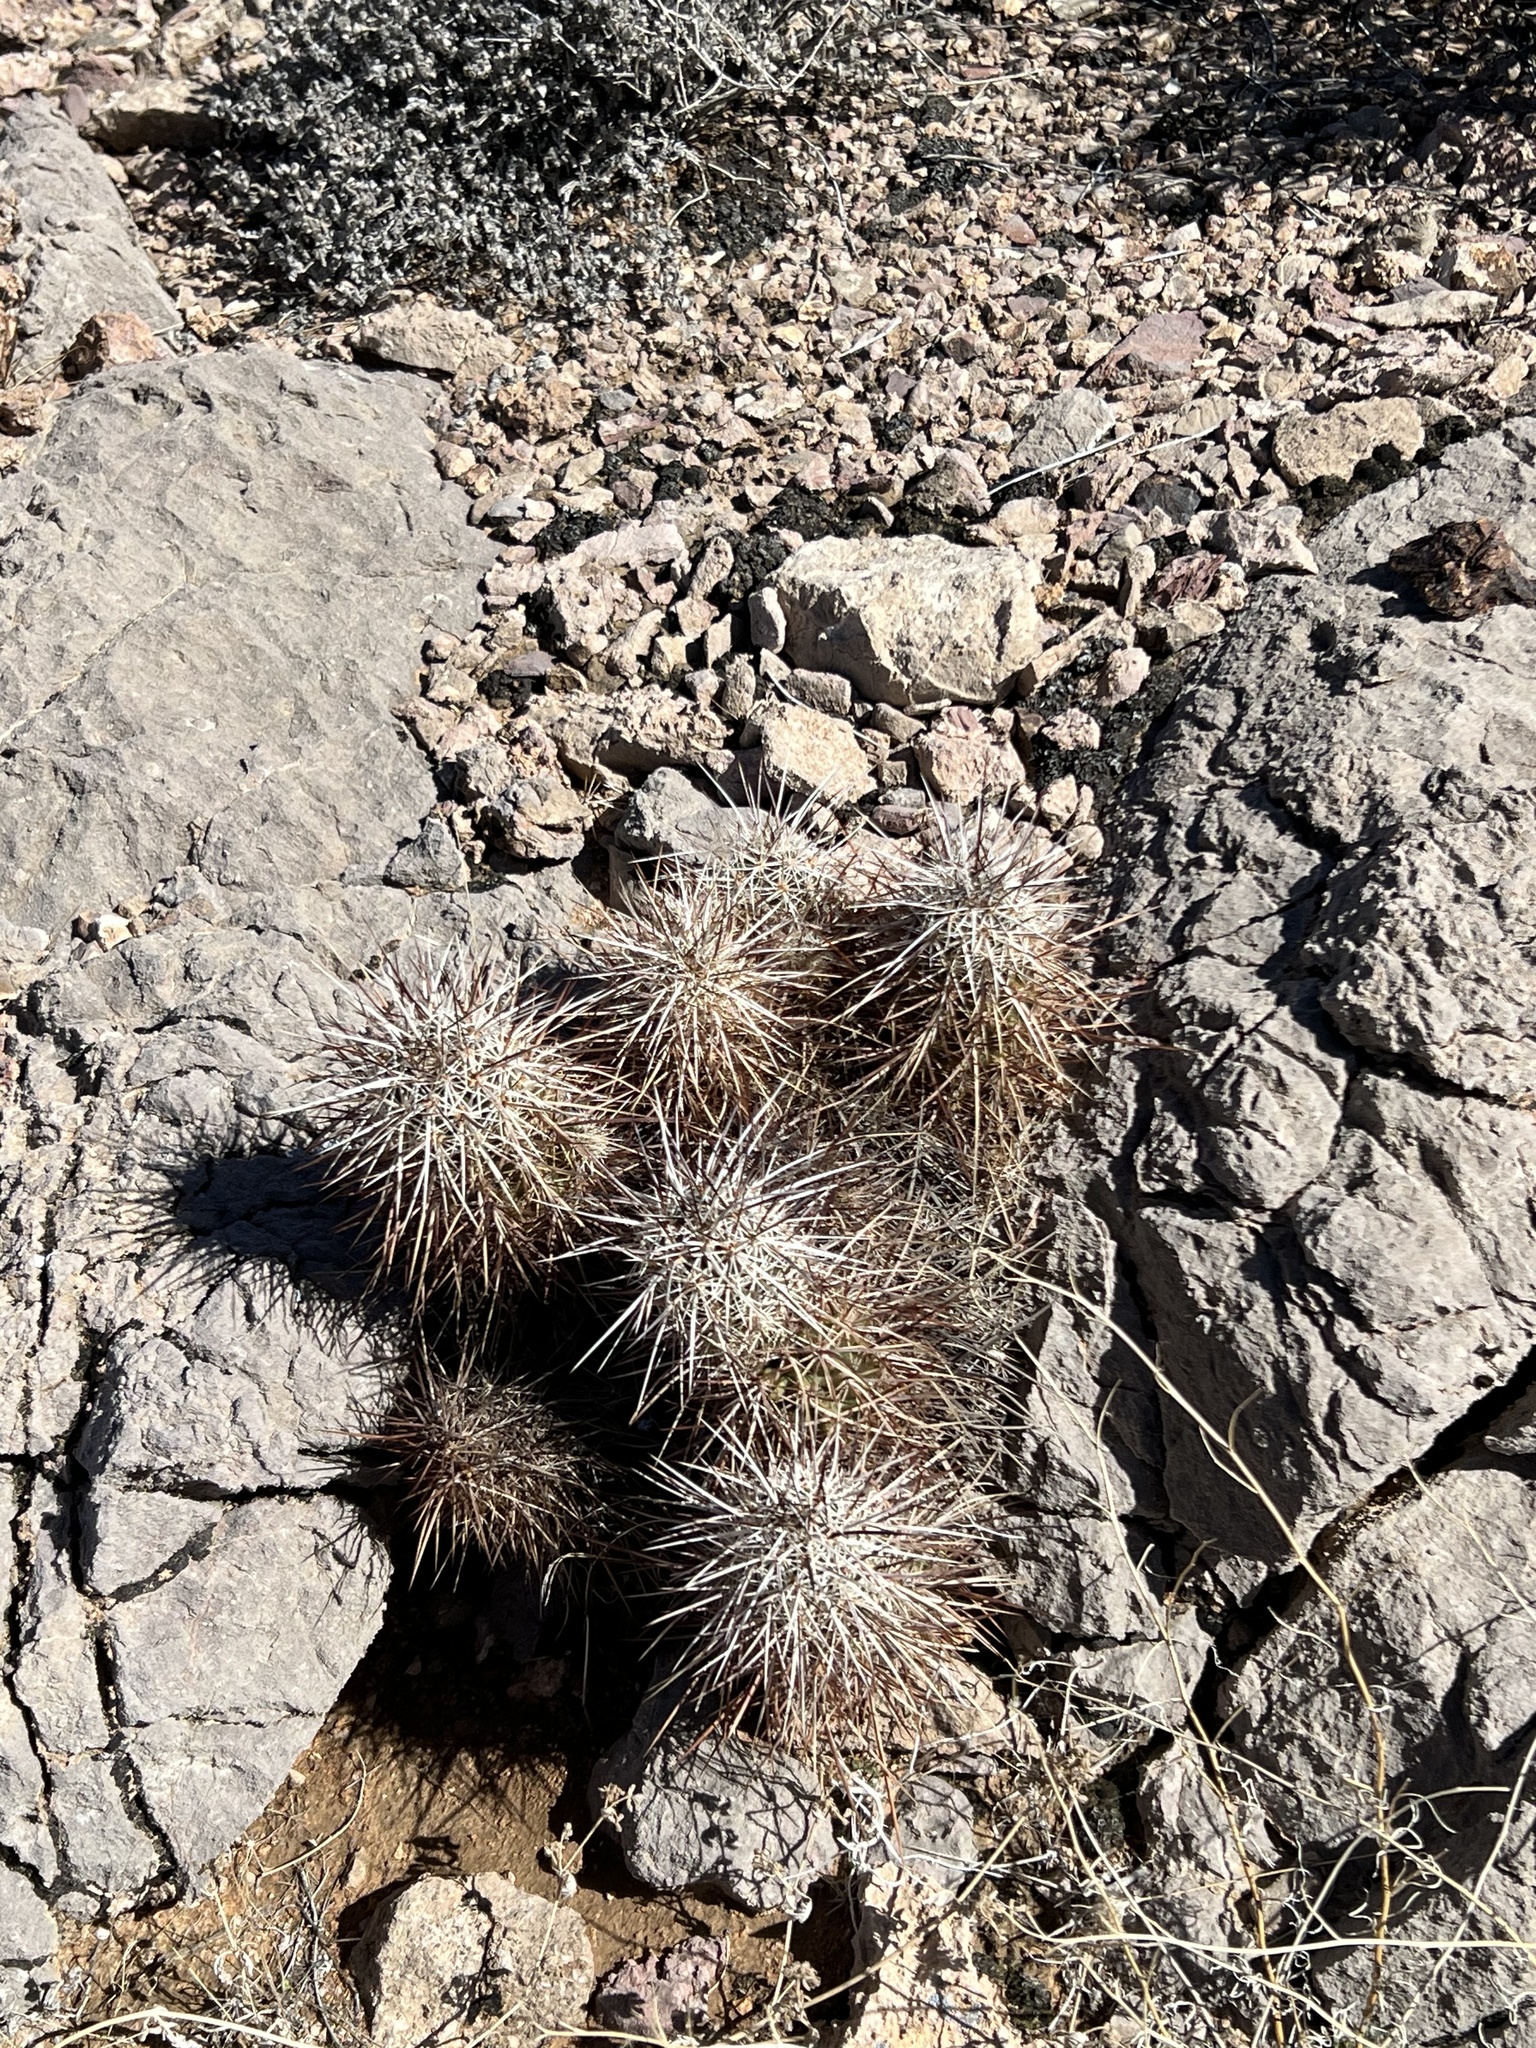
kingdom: Plantae
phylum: Tracheophyta
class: Magnoliopsida
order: Caryophyllales
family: Cactaceae
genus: Echinocereus
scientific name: Echinocereus engelmannii
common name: Engelmann's hedgehog cactus
